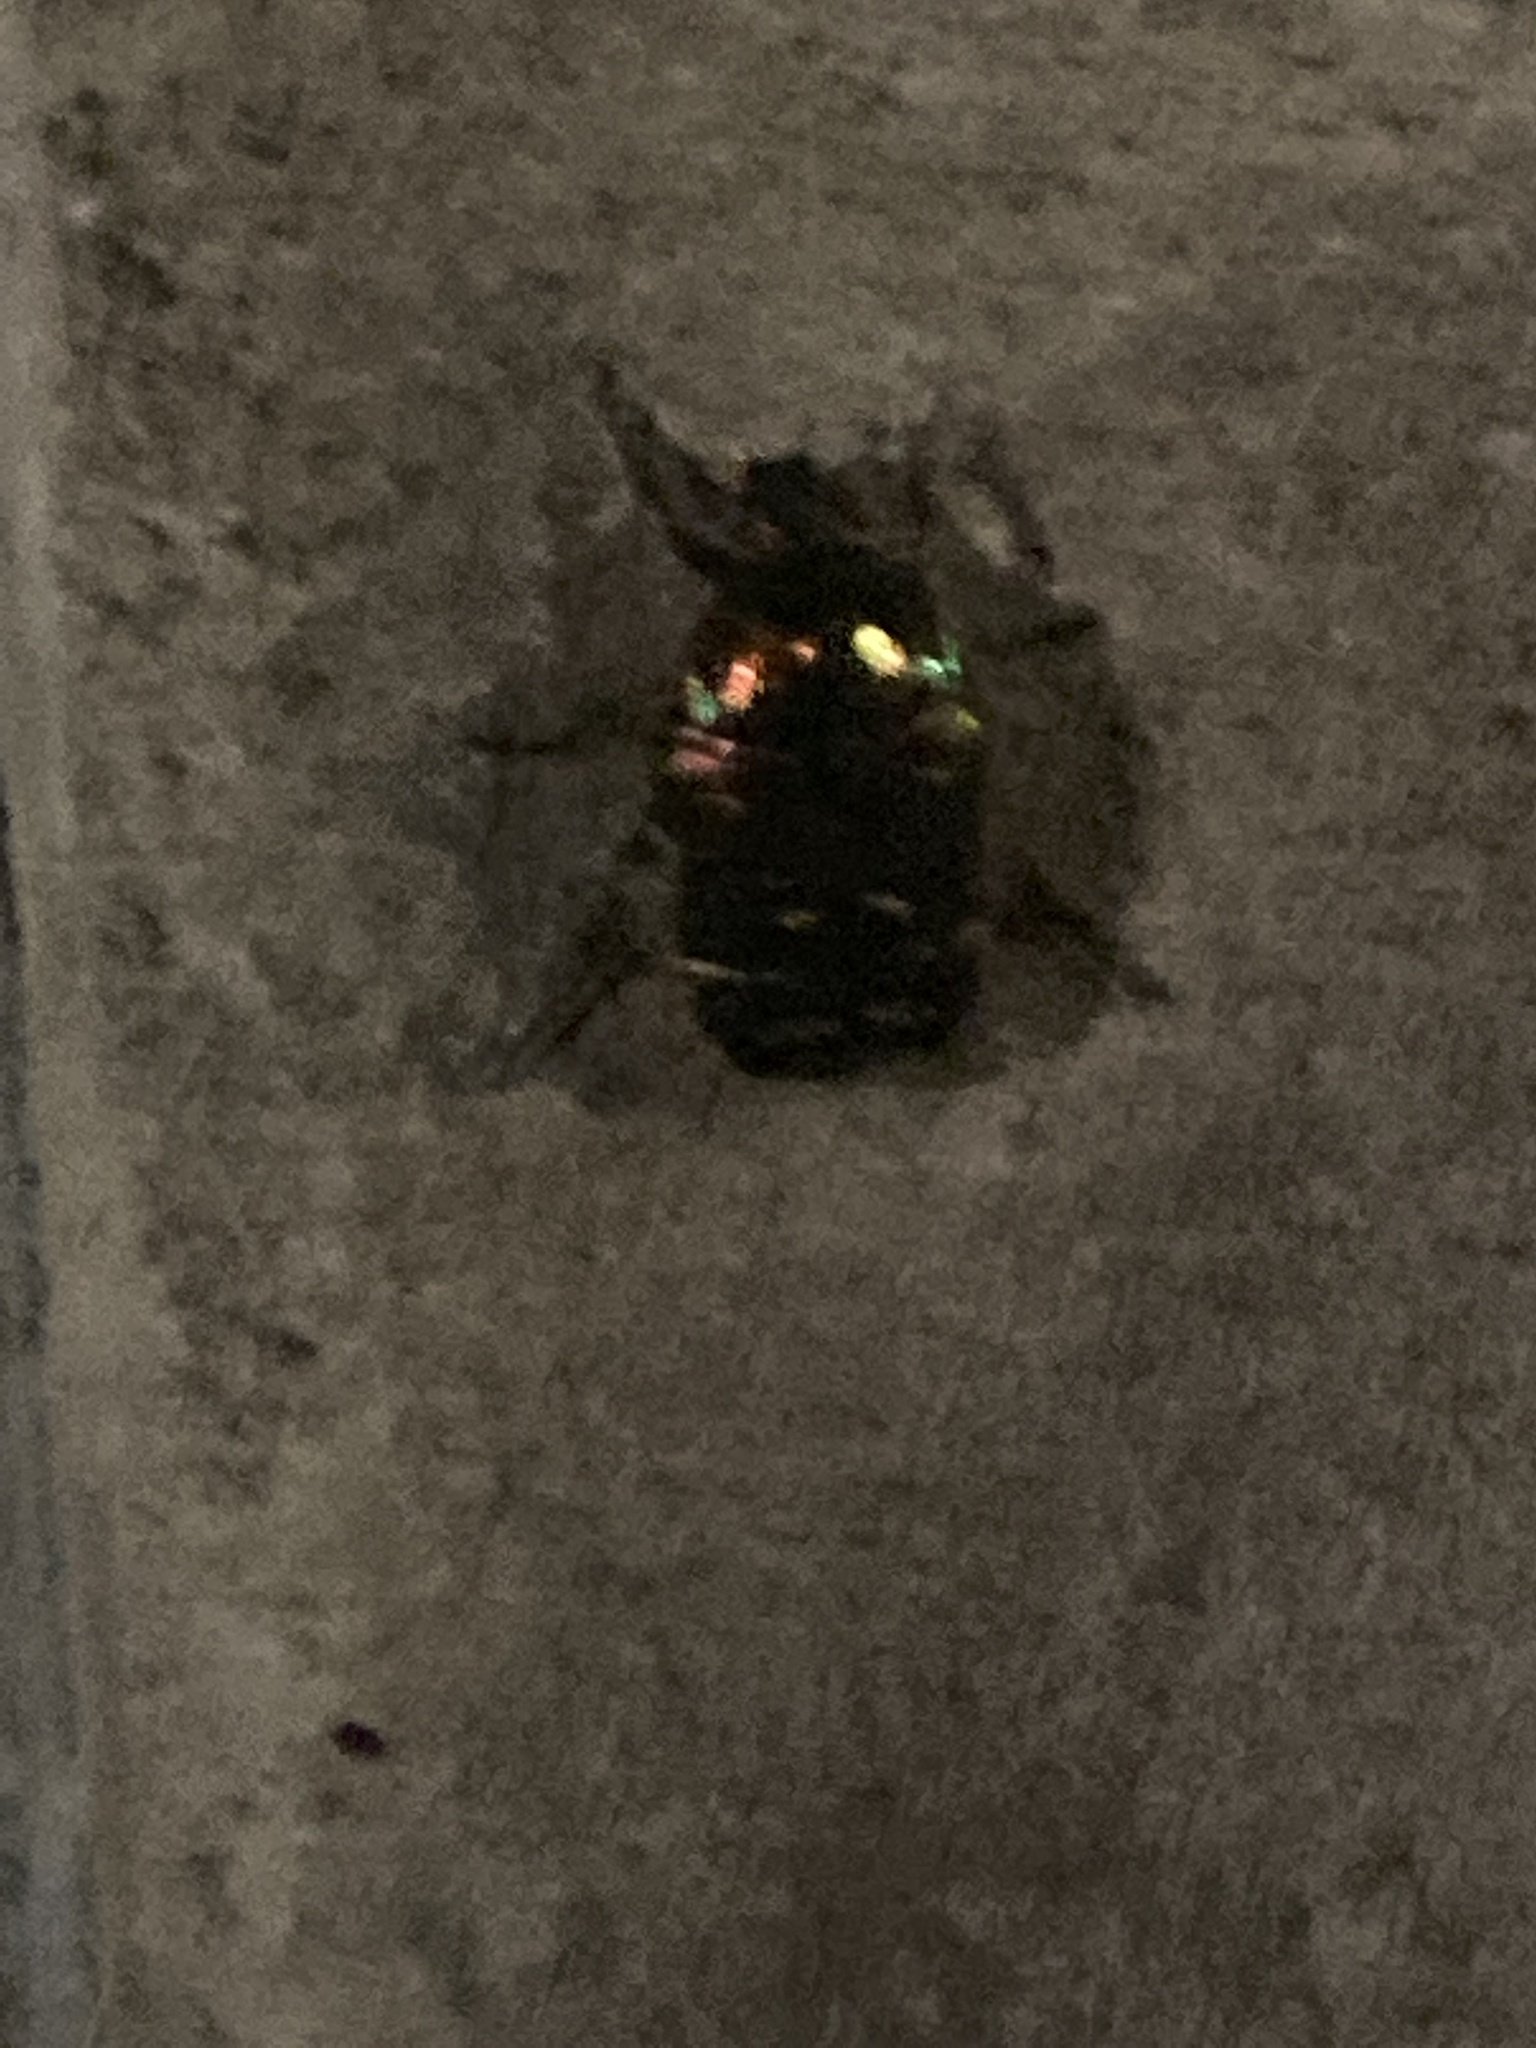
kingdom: Animalia
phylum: Arthropoda
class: Insecta
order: Coleoptera
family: Scarabaeidae
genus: Cetonia
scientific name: Cetonia aurata
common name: Rose chafer
